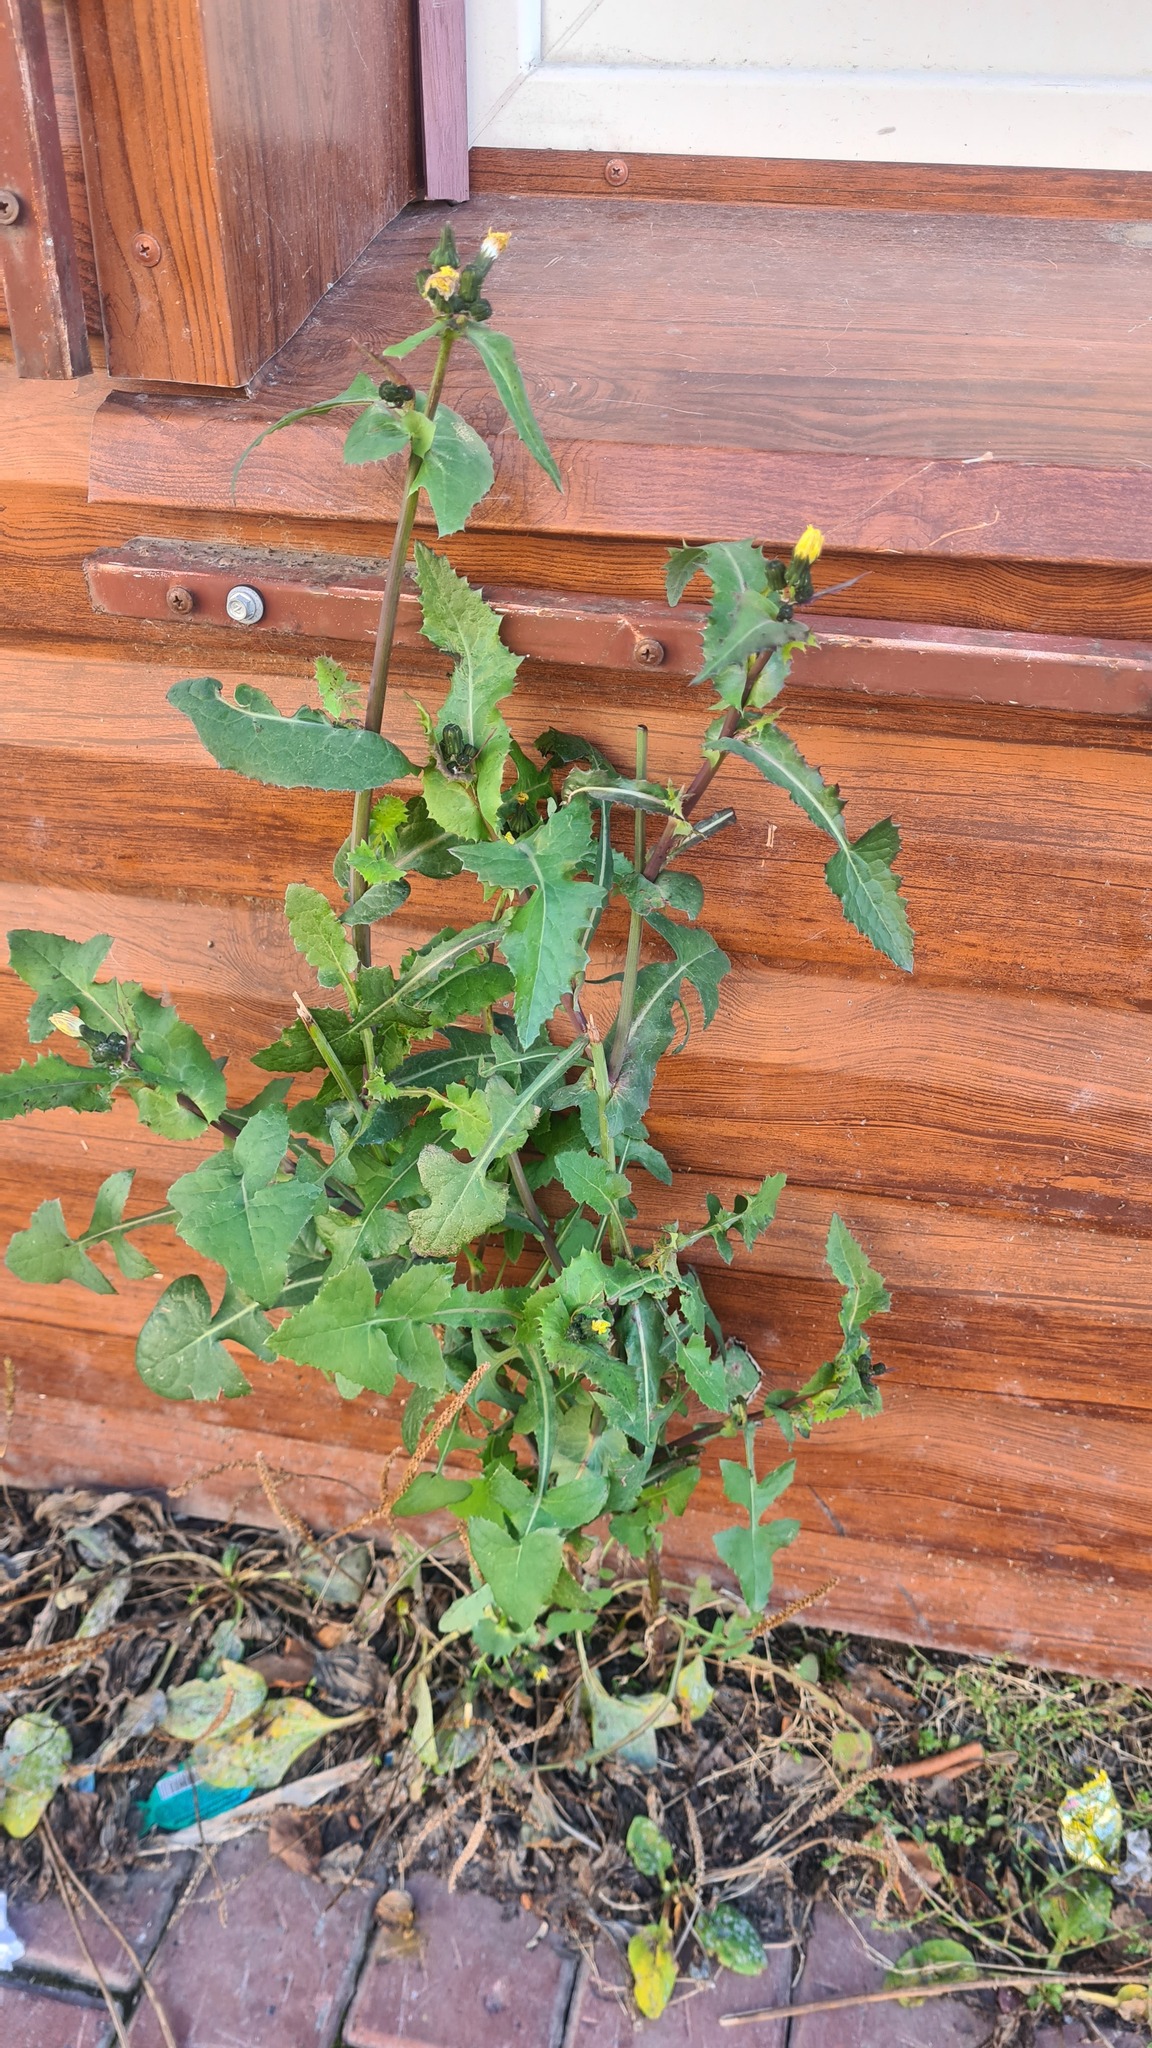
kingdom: Plantae
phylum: Tracheophyta
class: Magnoliopsida
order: Asterales
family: Asteraceae
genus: Sonchus
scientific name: Sonchus oleraceus
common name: Common sowthistle
